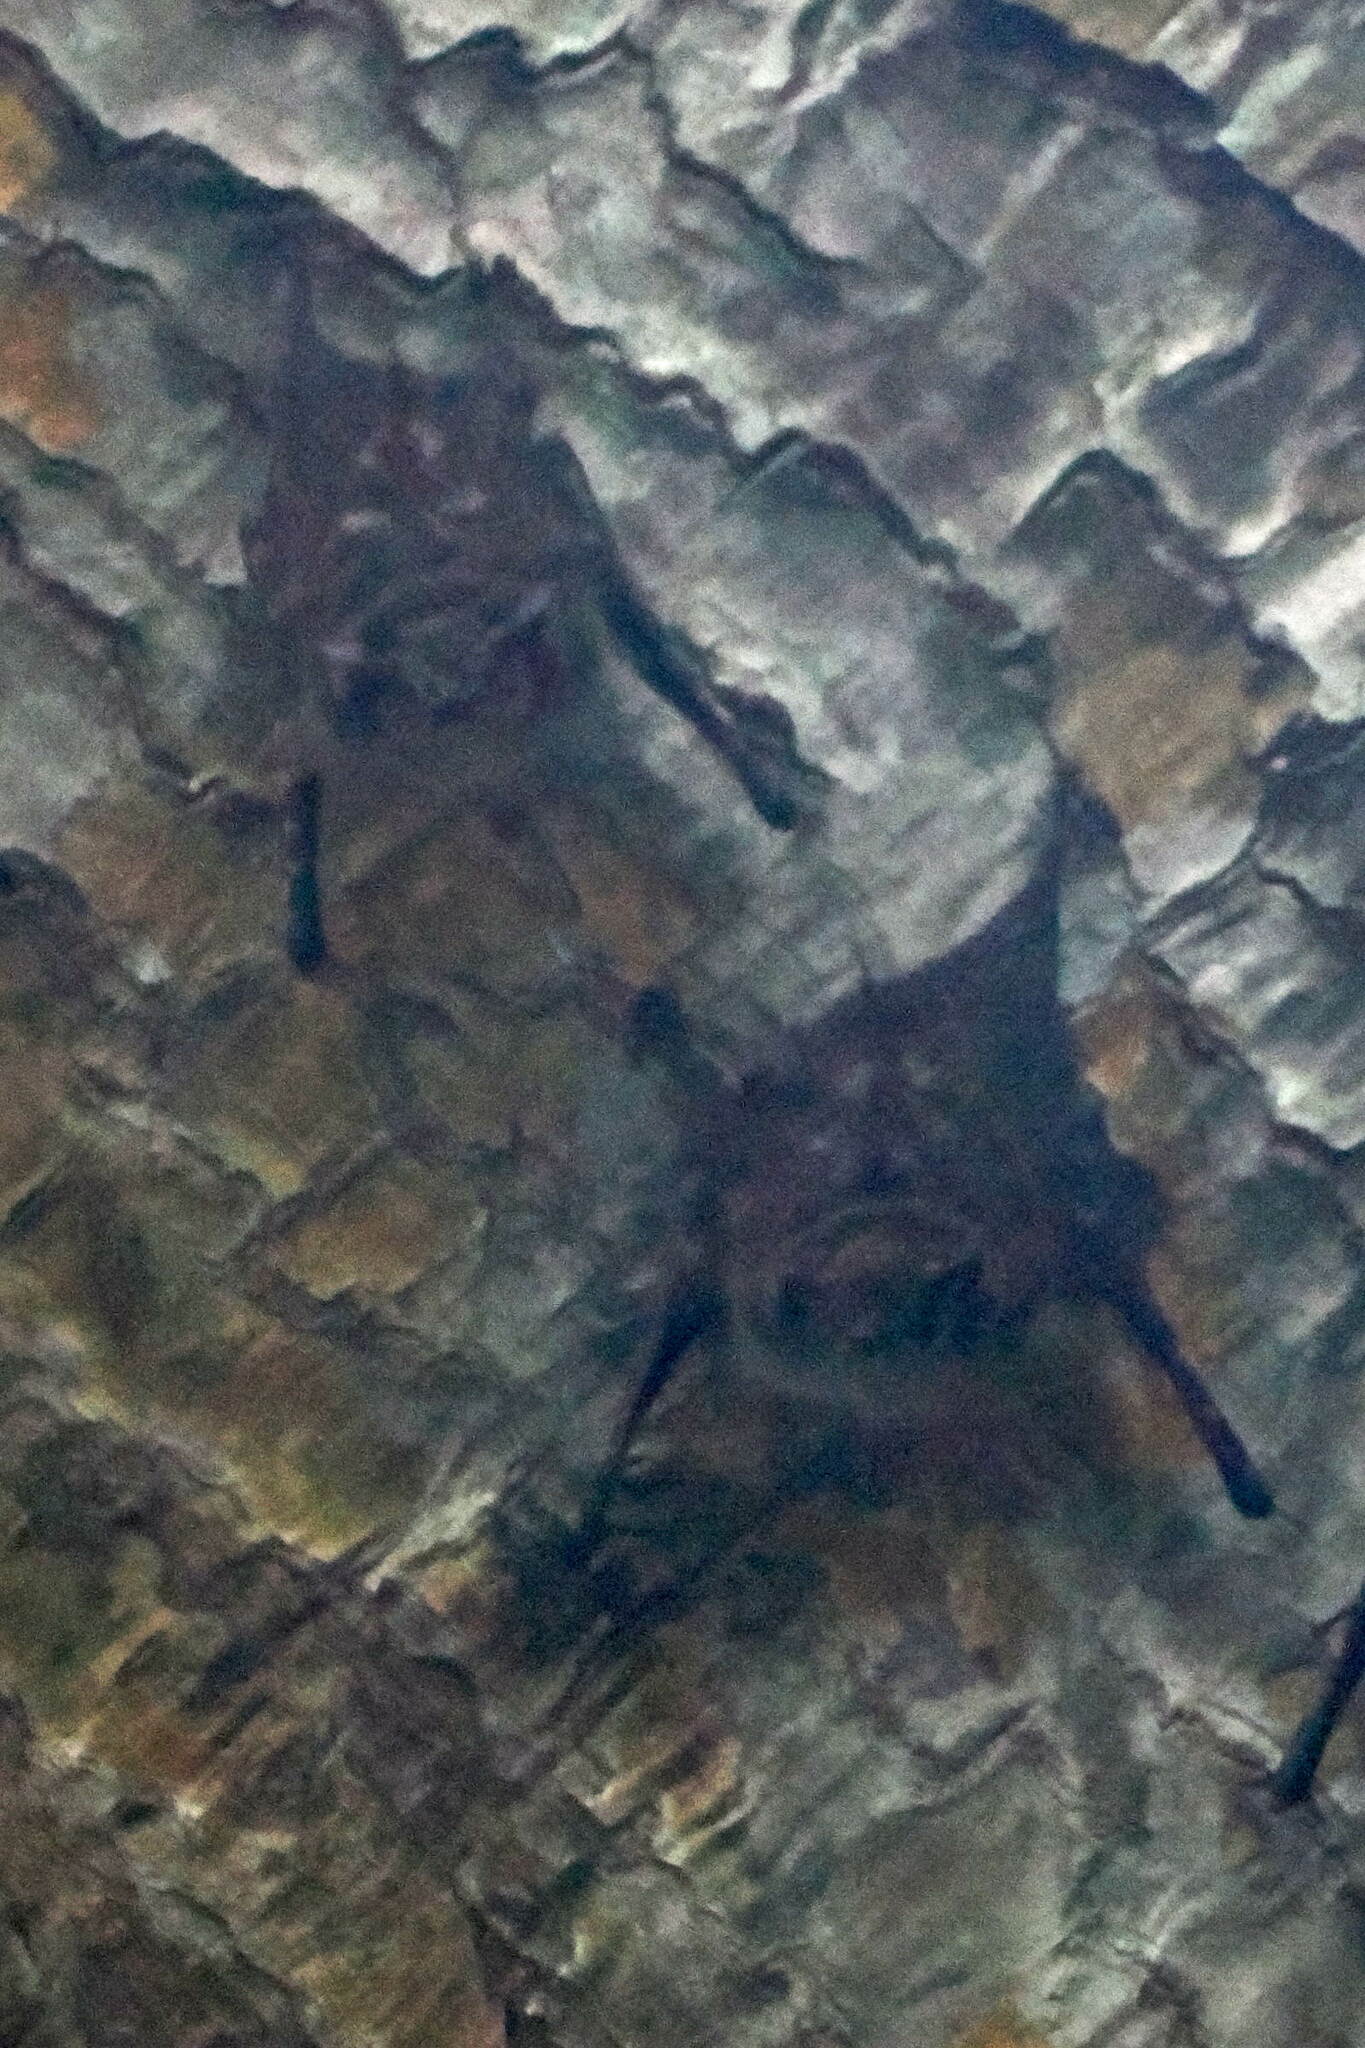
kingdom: Animalia
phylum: Chordata
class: Mammalia
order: Chiroptera
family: Emballonuridae
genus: Rhynchonycteris
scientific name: Rhynchonycteris naso
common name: Proboscis bat
